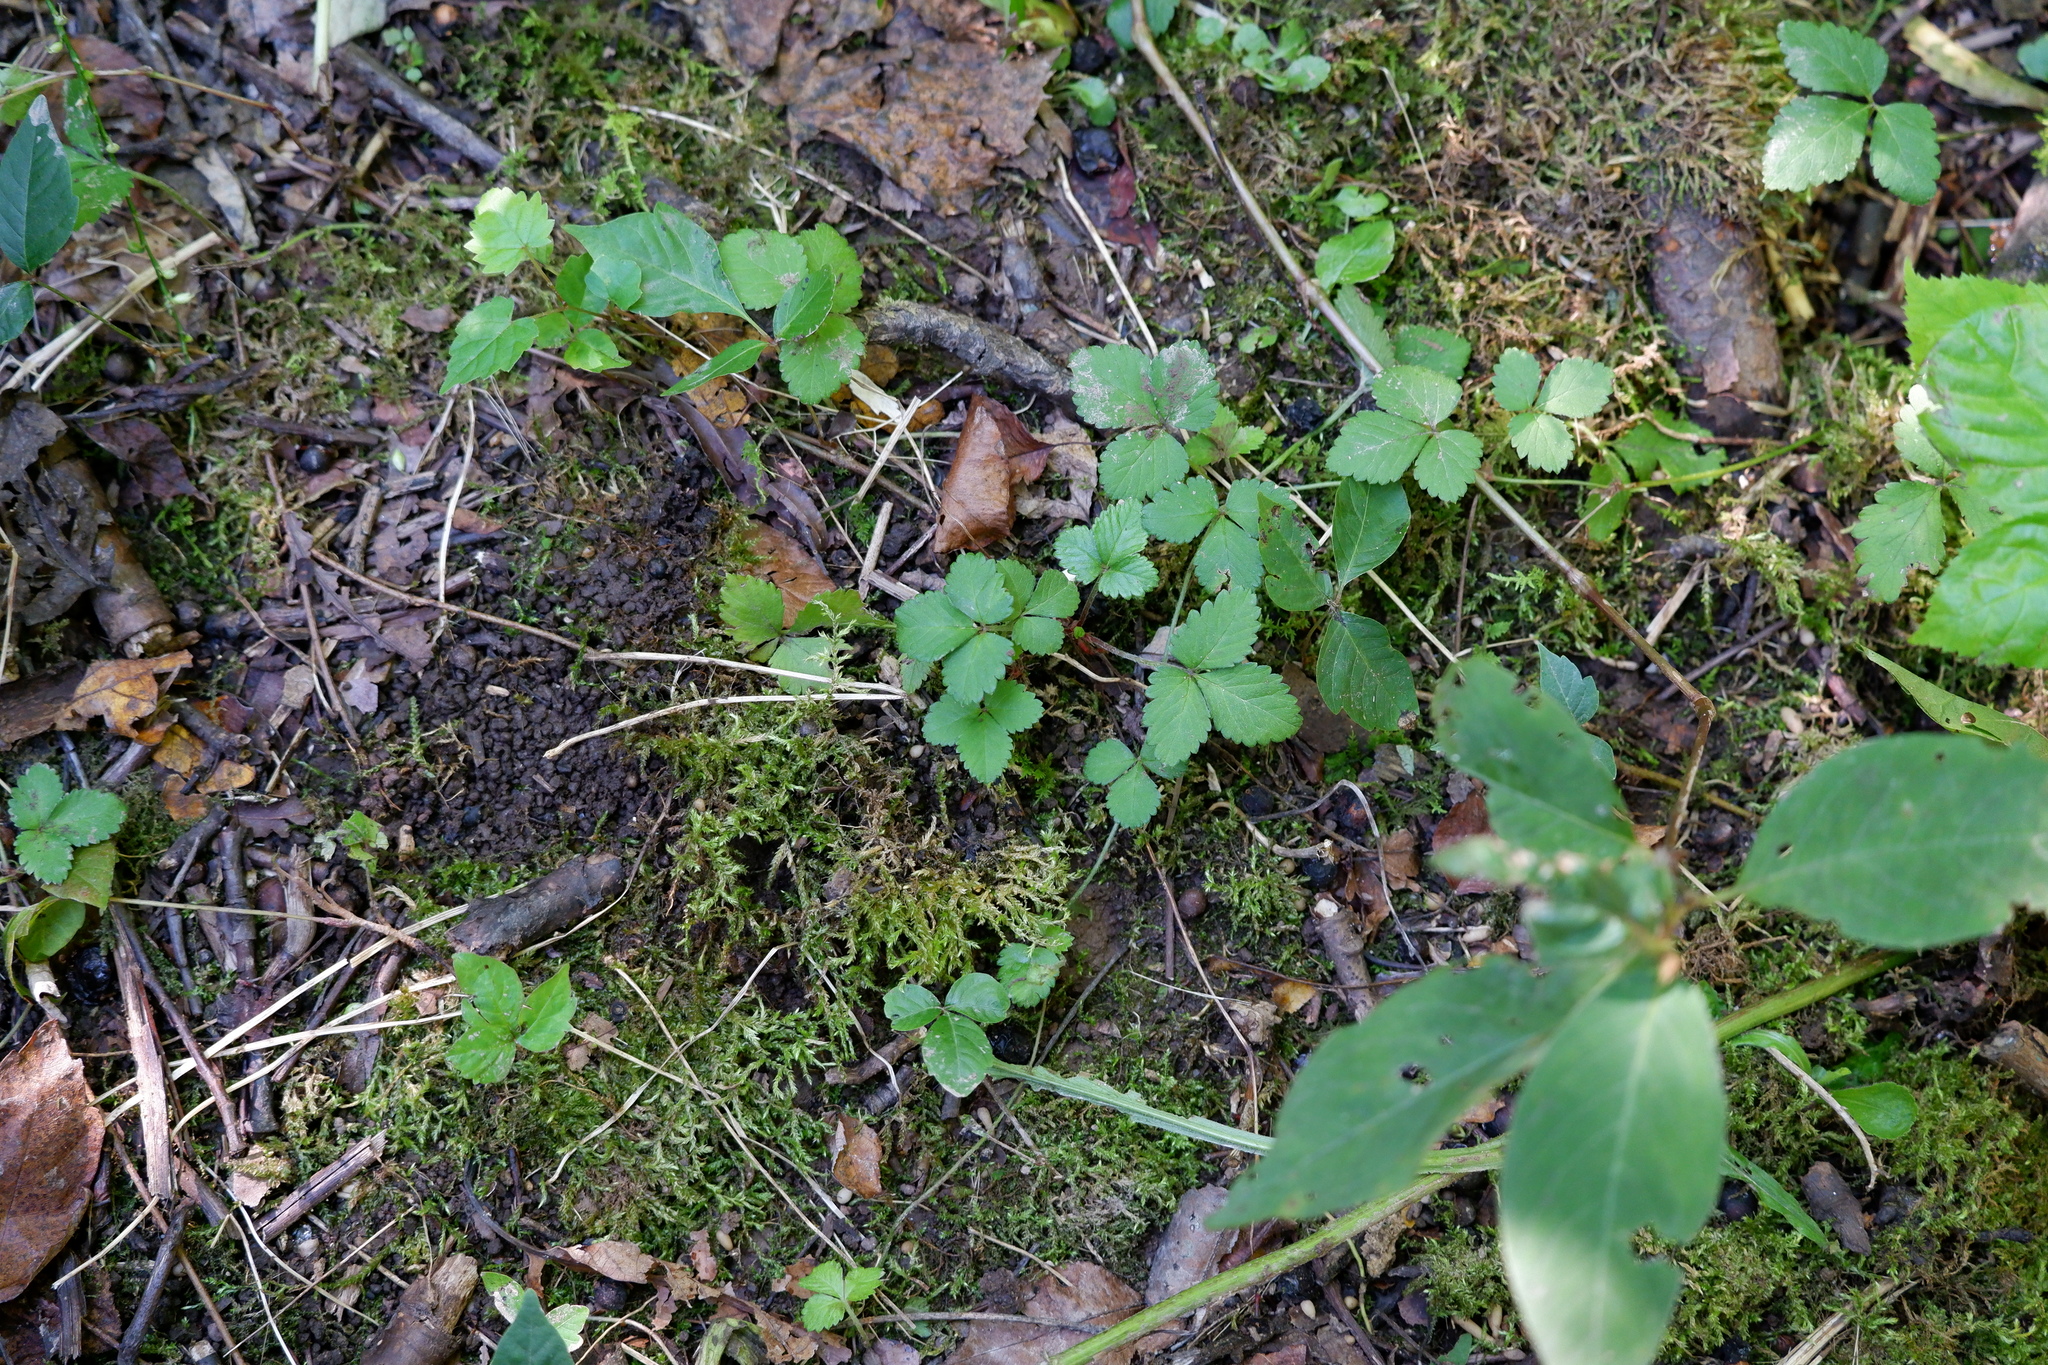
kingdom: Plantae
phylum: Tracheophyta
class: Magnoliopsida
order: Rosales
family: Rosaceae
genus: Potentilla
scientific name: Potentilla indica
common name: Yellow-flowered strawberry
